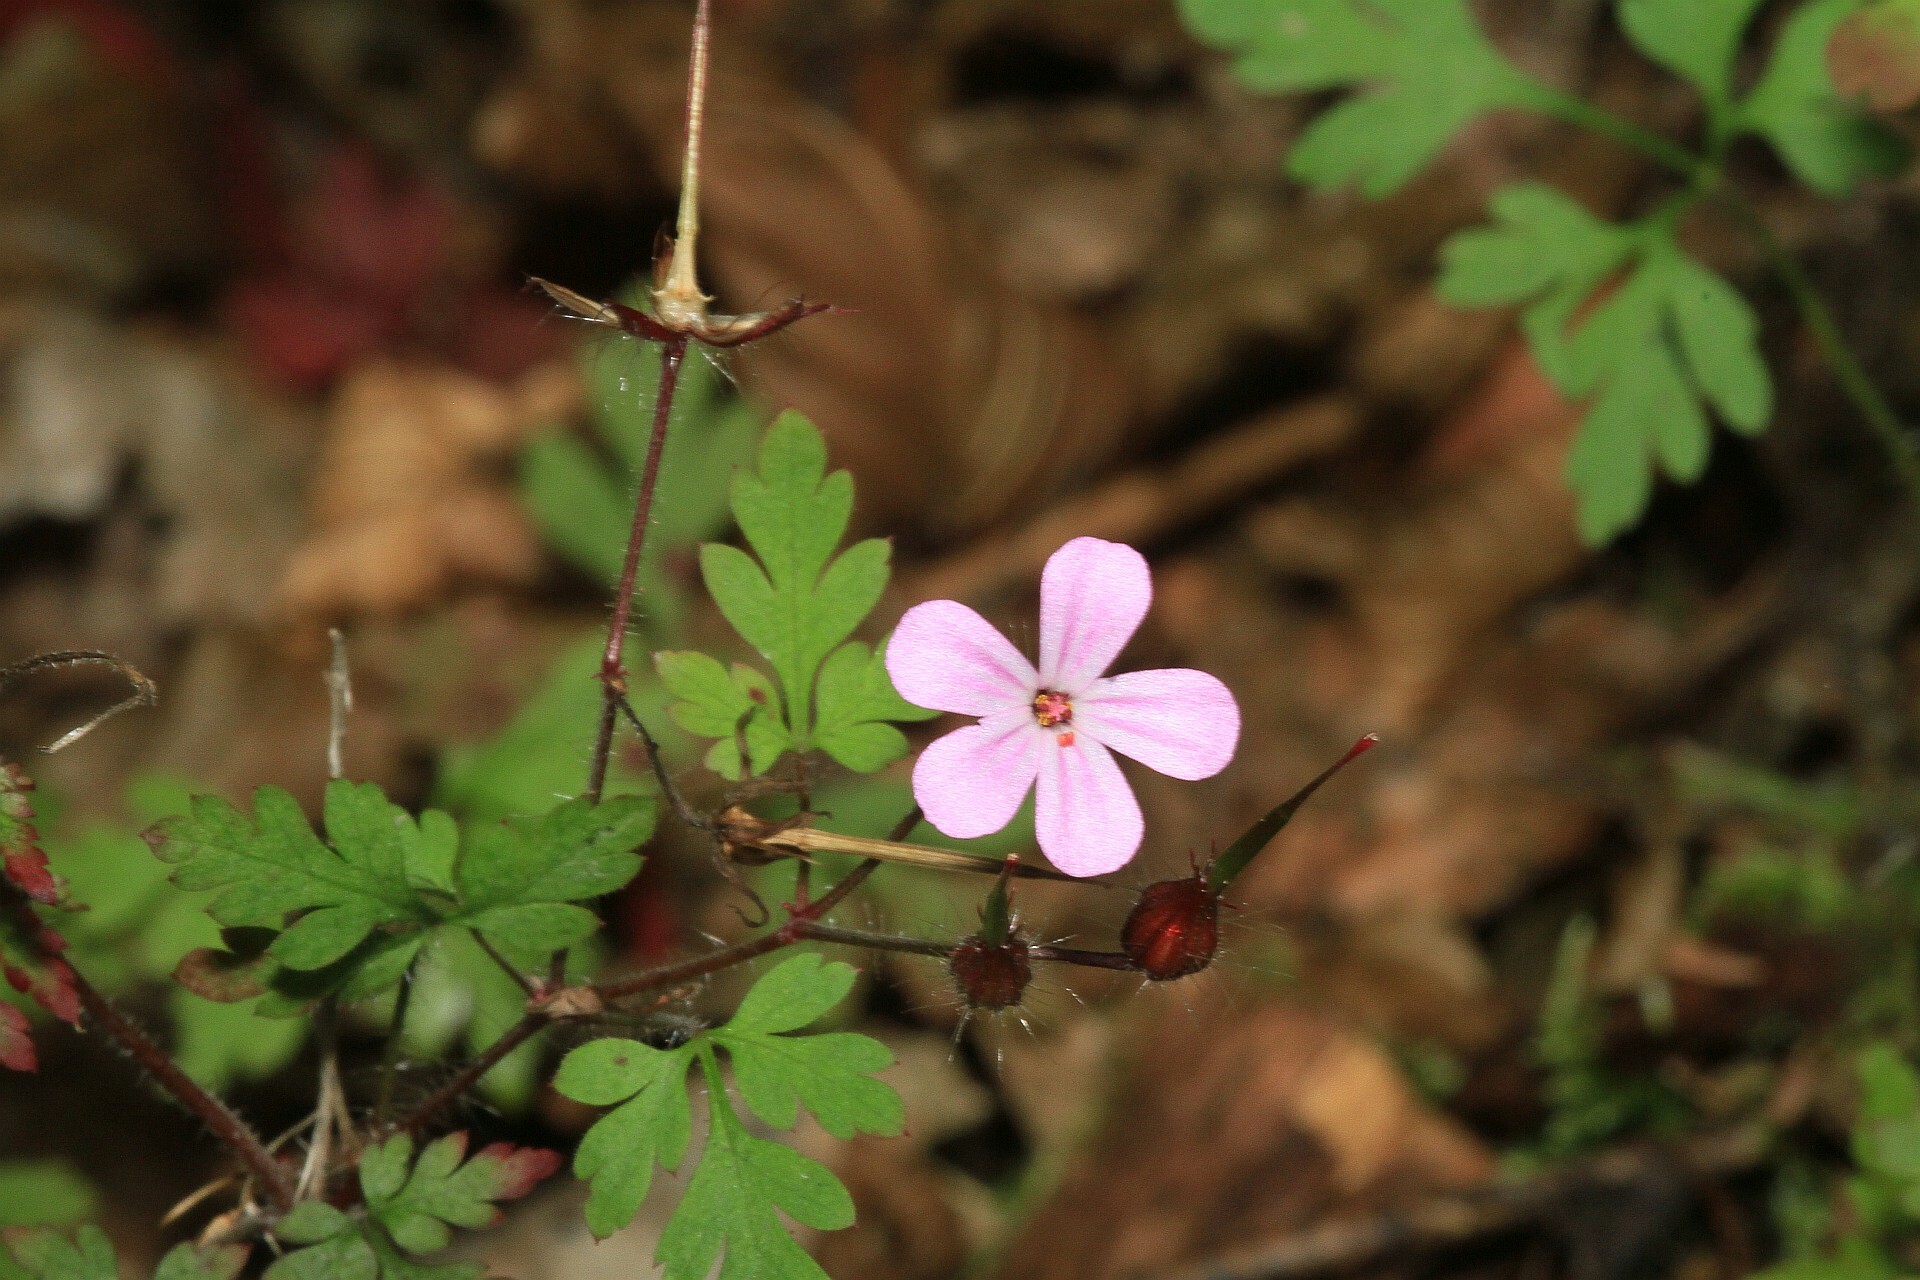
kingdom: Plantae
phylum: Tracheophyta
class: Magnoliopsida
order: Geraniales
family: Geraniaceae
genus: Geranium
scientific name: Geranium robertianum
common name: Herb-robert
